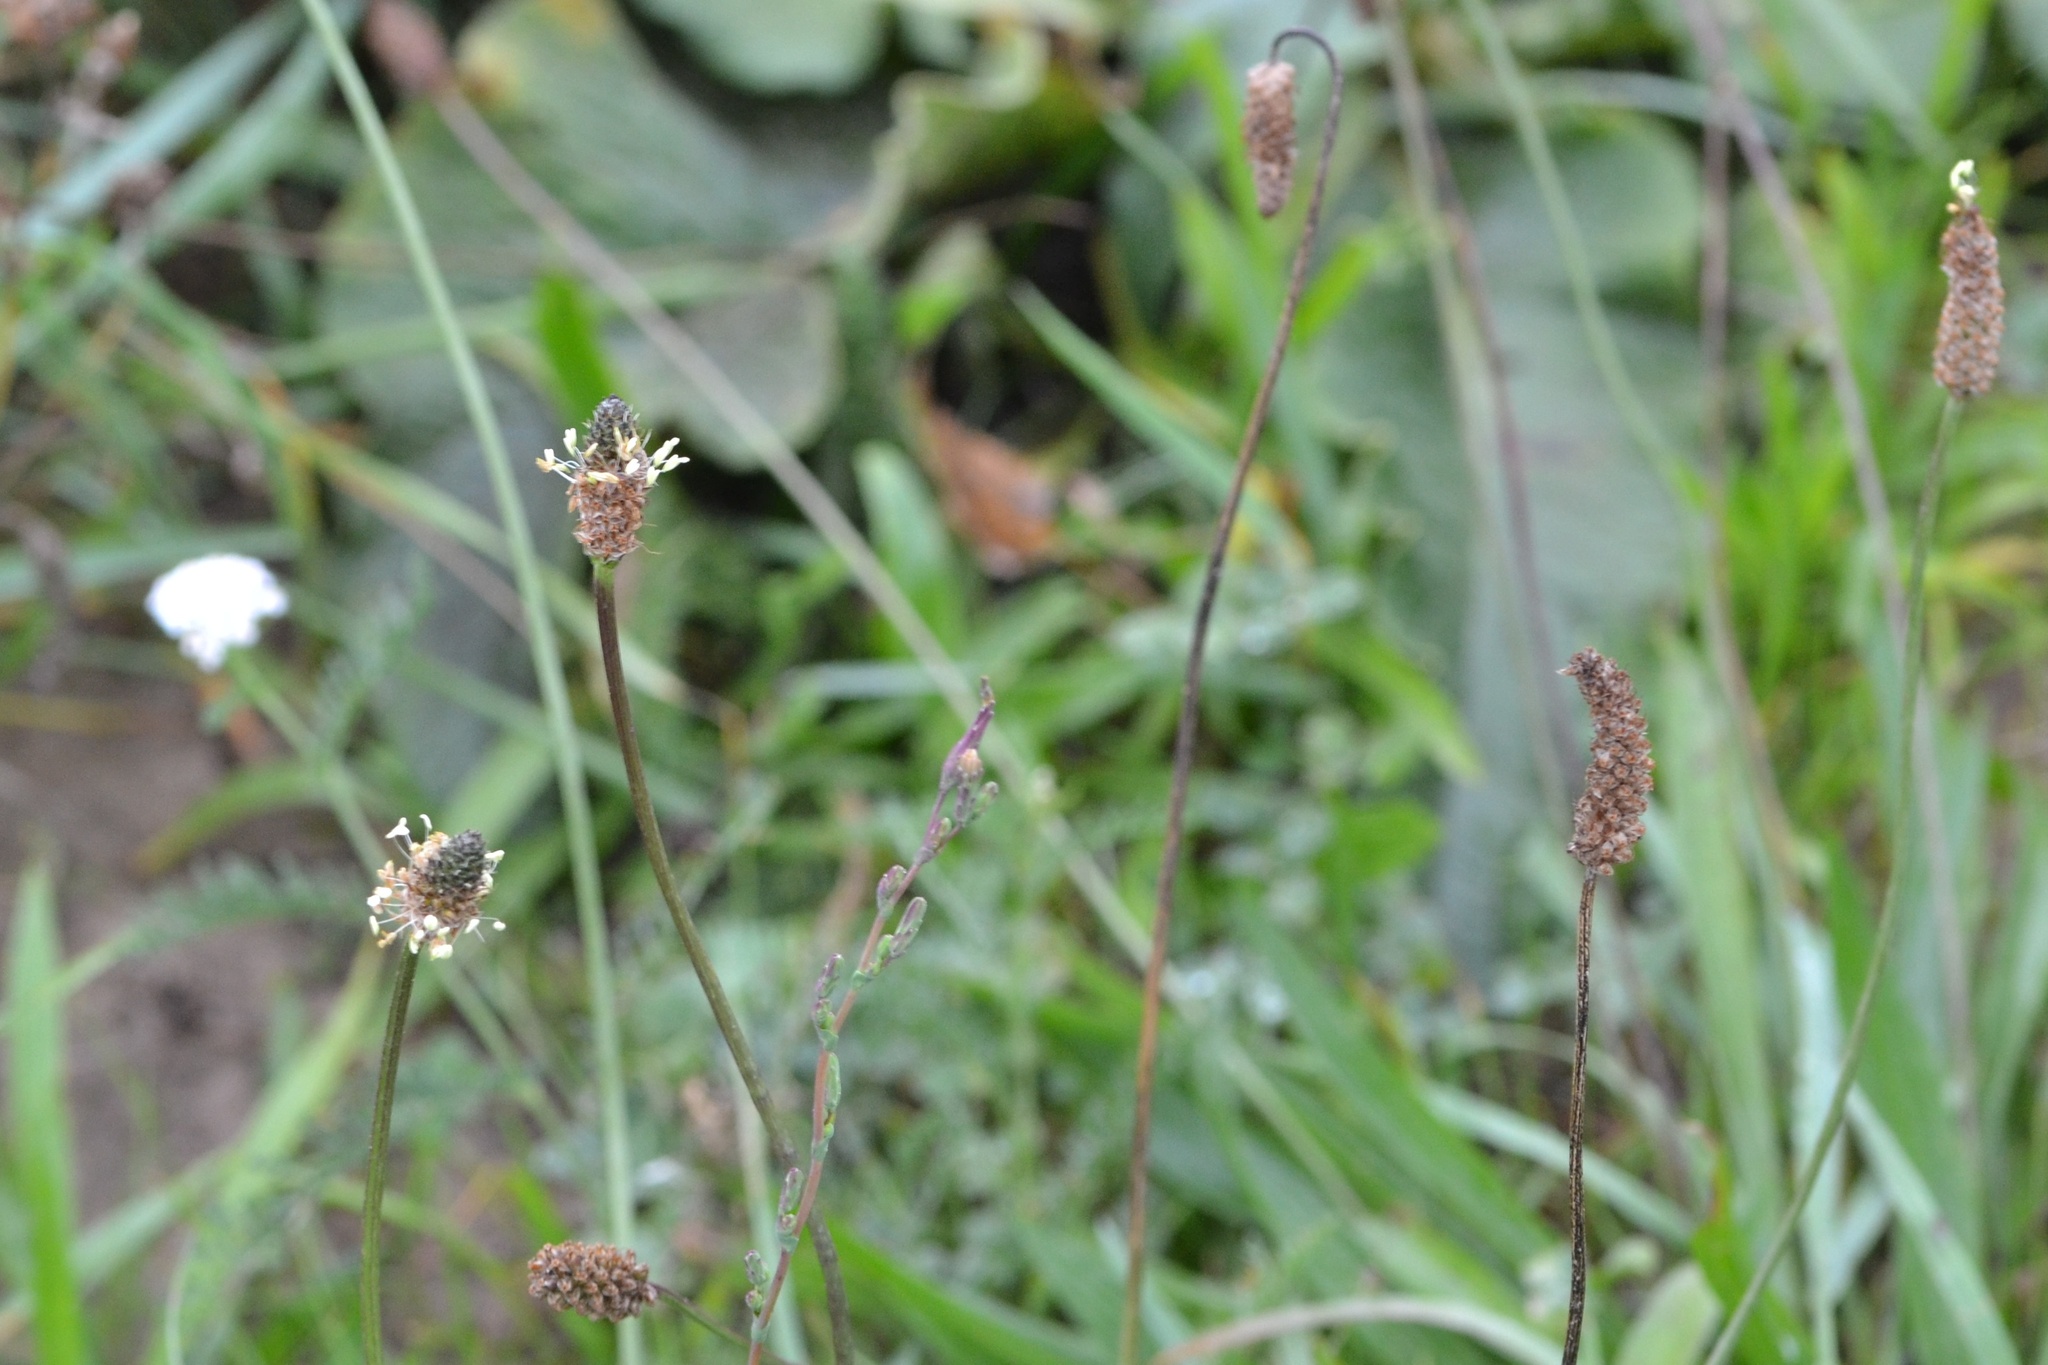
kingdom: Plantae
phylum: Tracheophyta
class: Magnoliopsida
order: Lamiales
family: Plantaginaceae
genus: Plantago
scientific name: Plantago lanceolata
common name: Ribwort plantain
